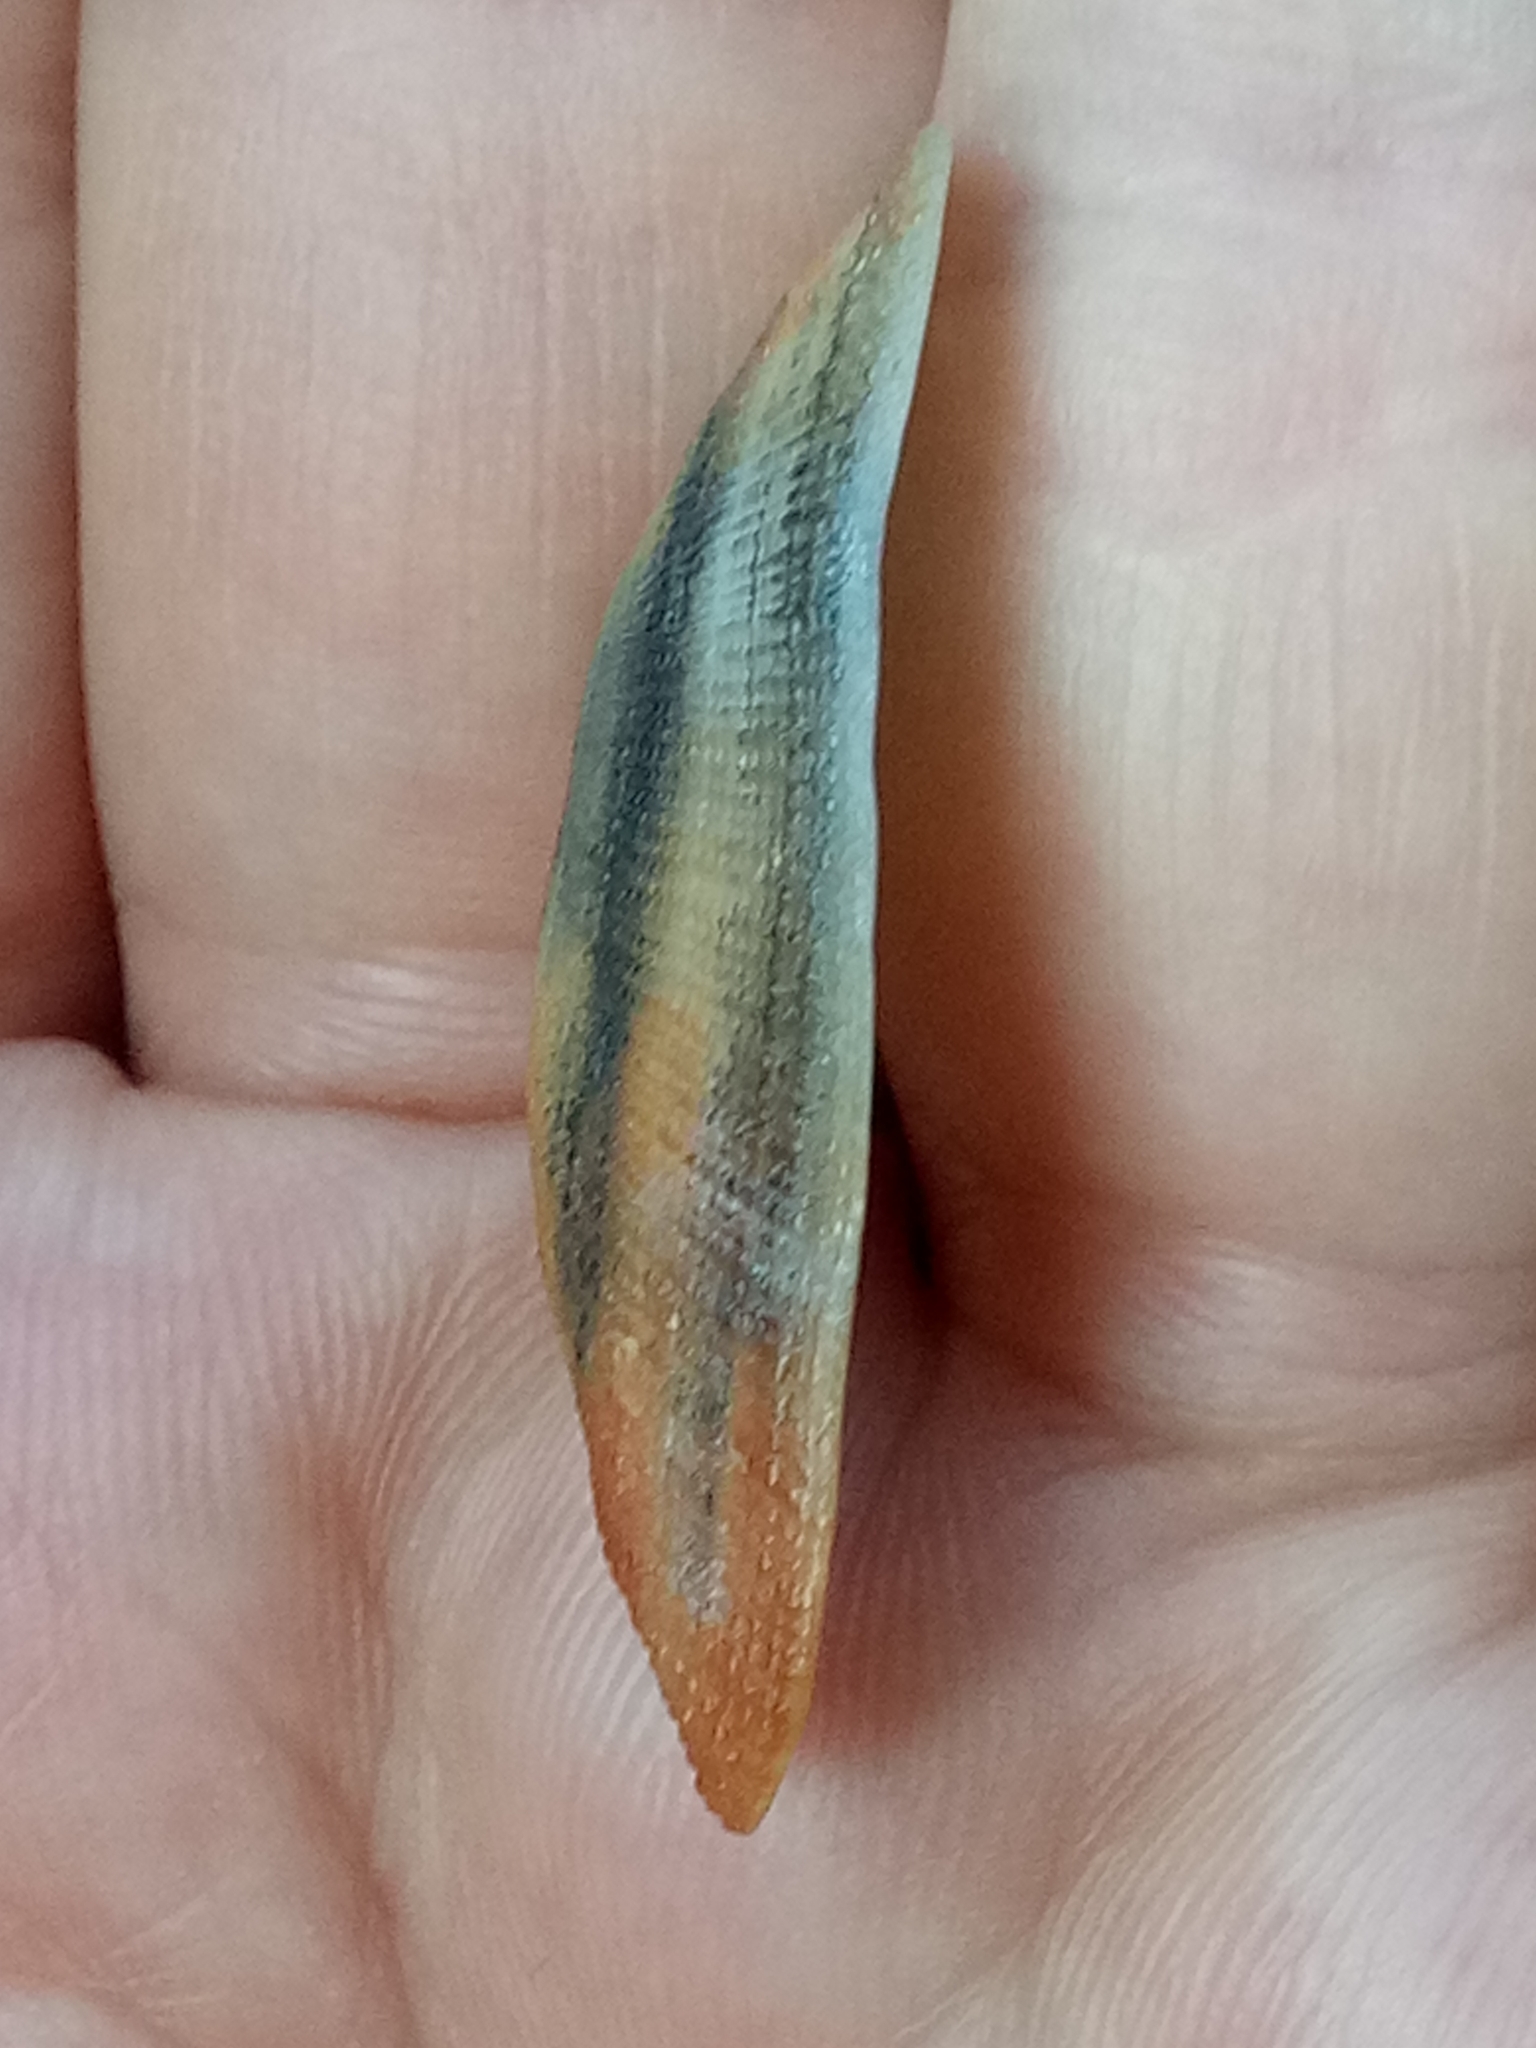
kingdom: Animalia
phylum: Mollusca
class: Bivalvia
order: Arcida
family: Arcidae
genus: Barbatia
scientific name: Barbatia barbata
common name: Bearded ark
